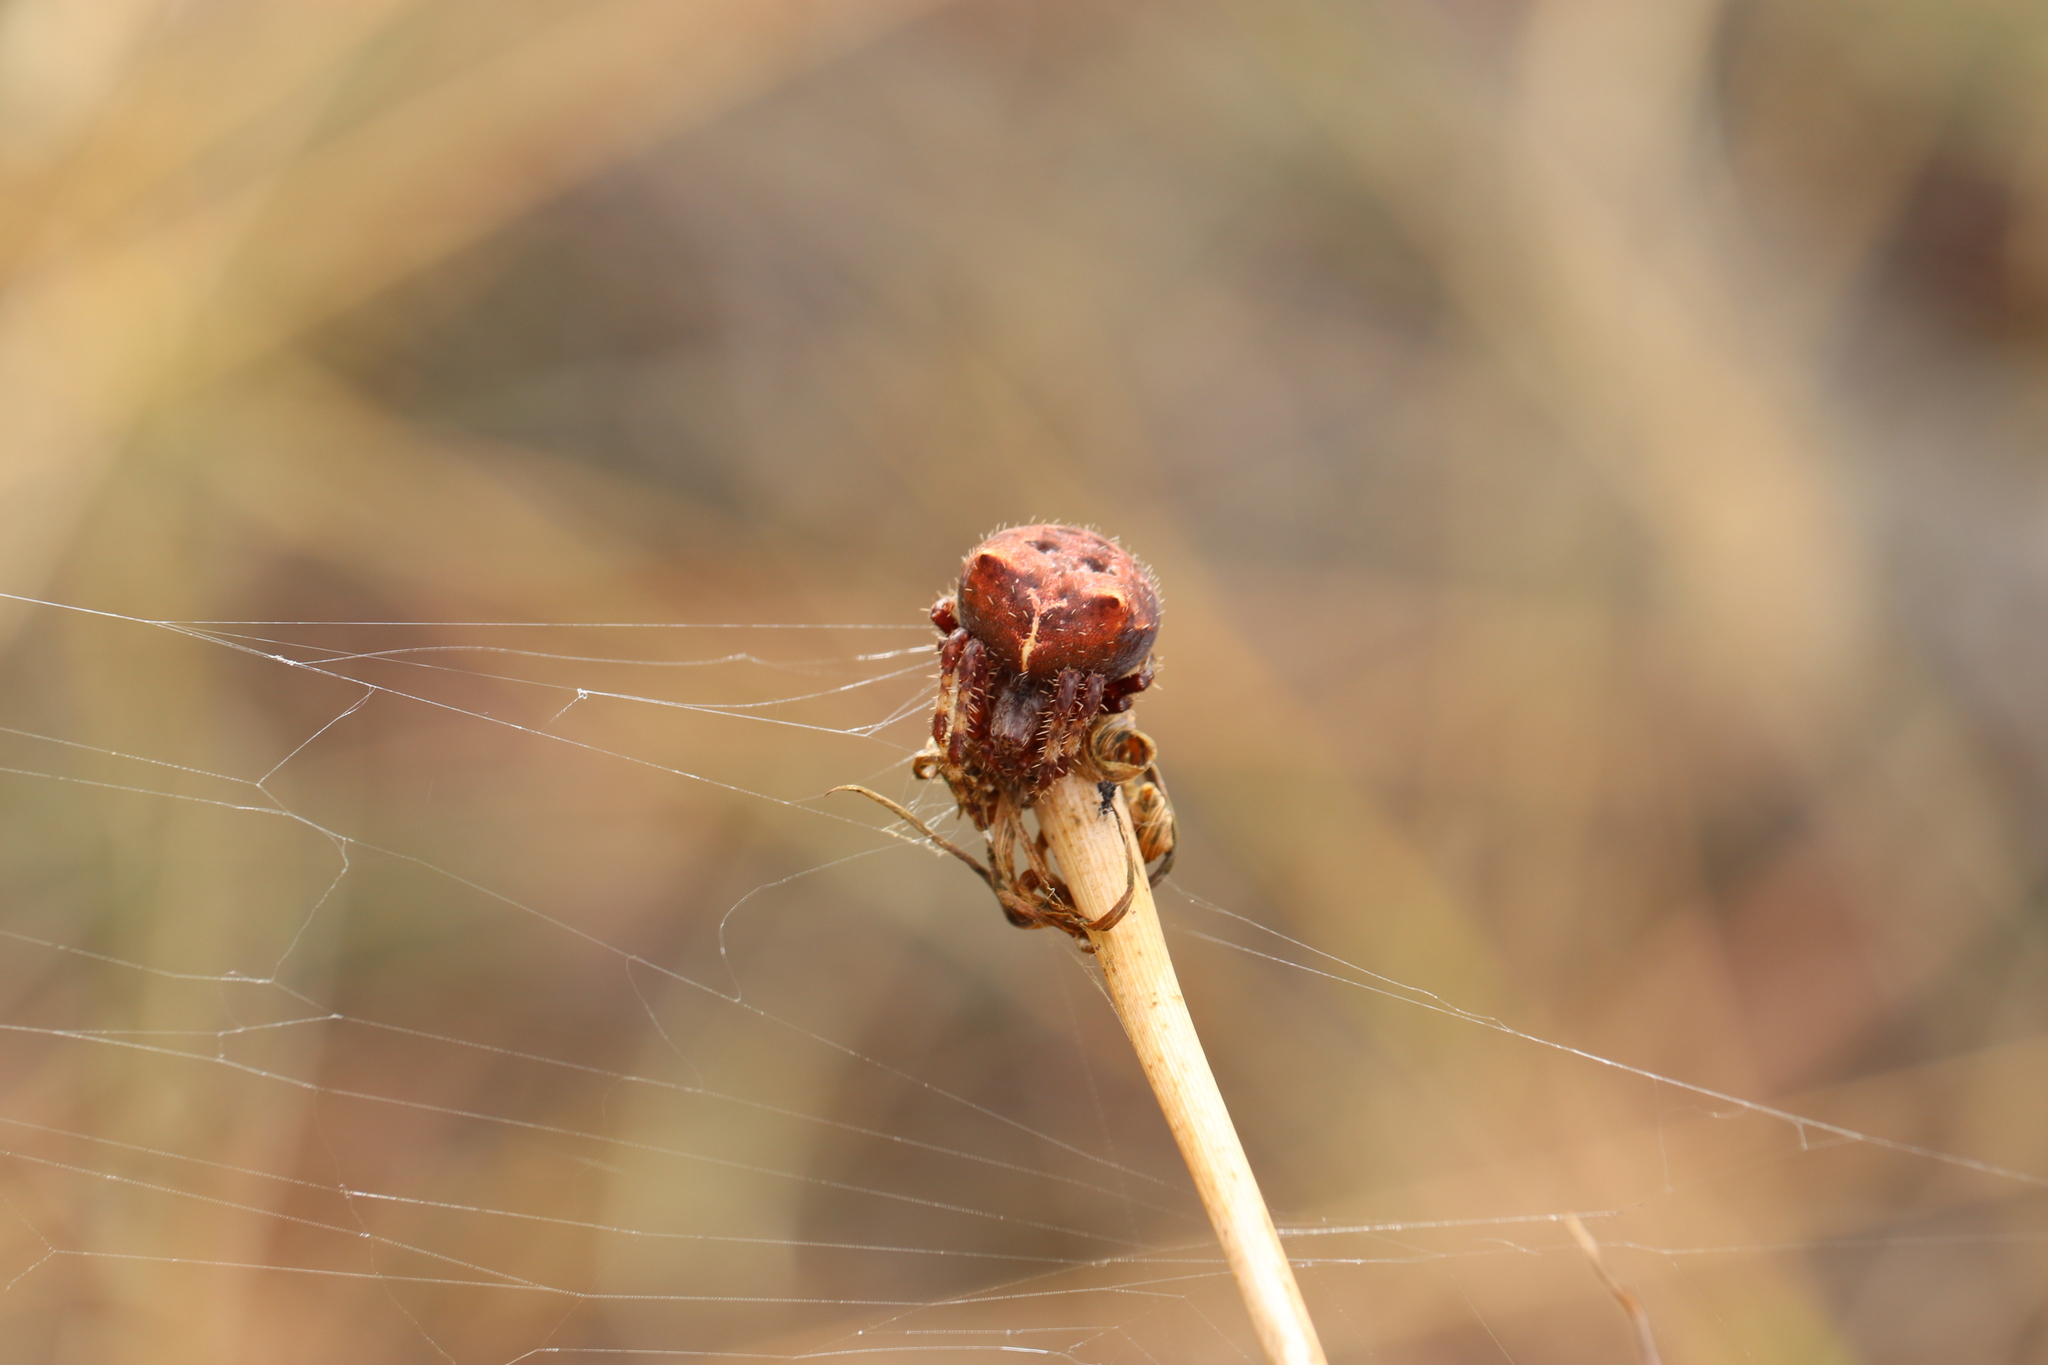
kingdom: Animalia
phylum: Arthropoda
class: Arachnida
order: Araneae
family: Araneidae
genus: Araneus
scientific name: Araneus gemmoides
